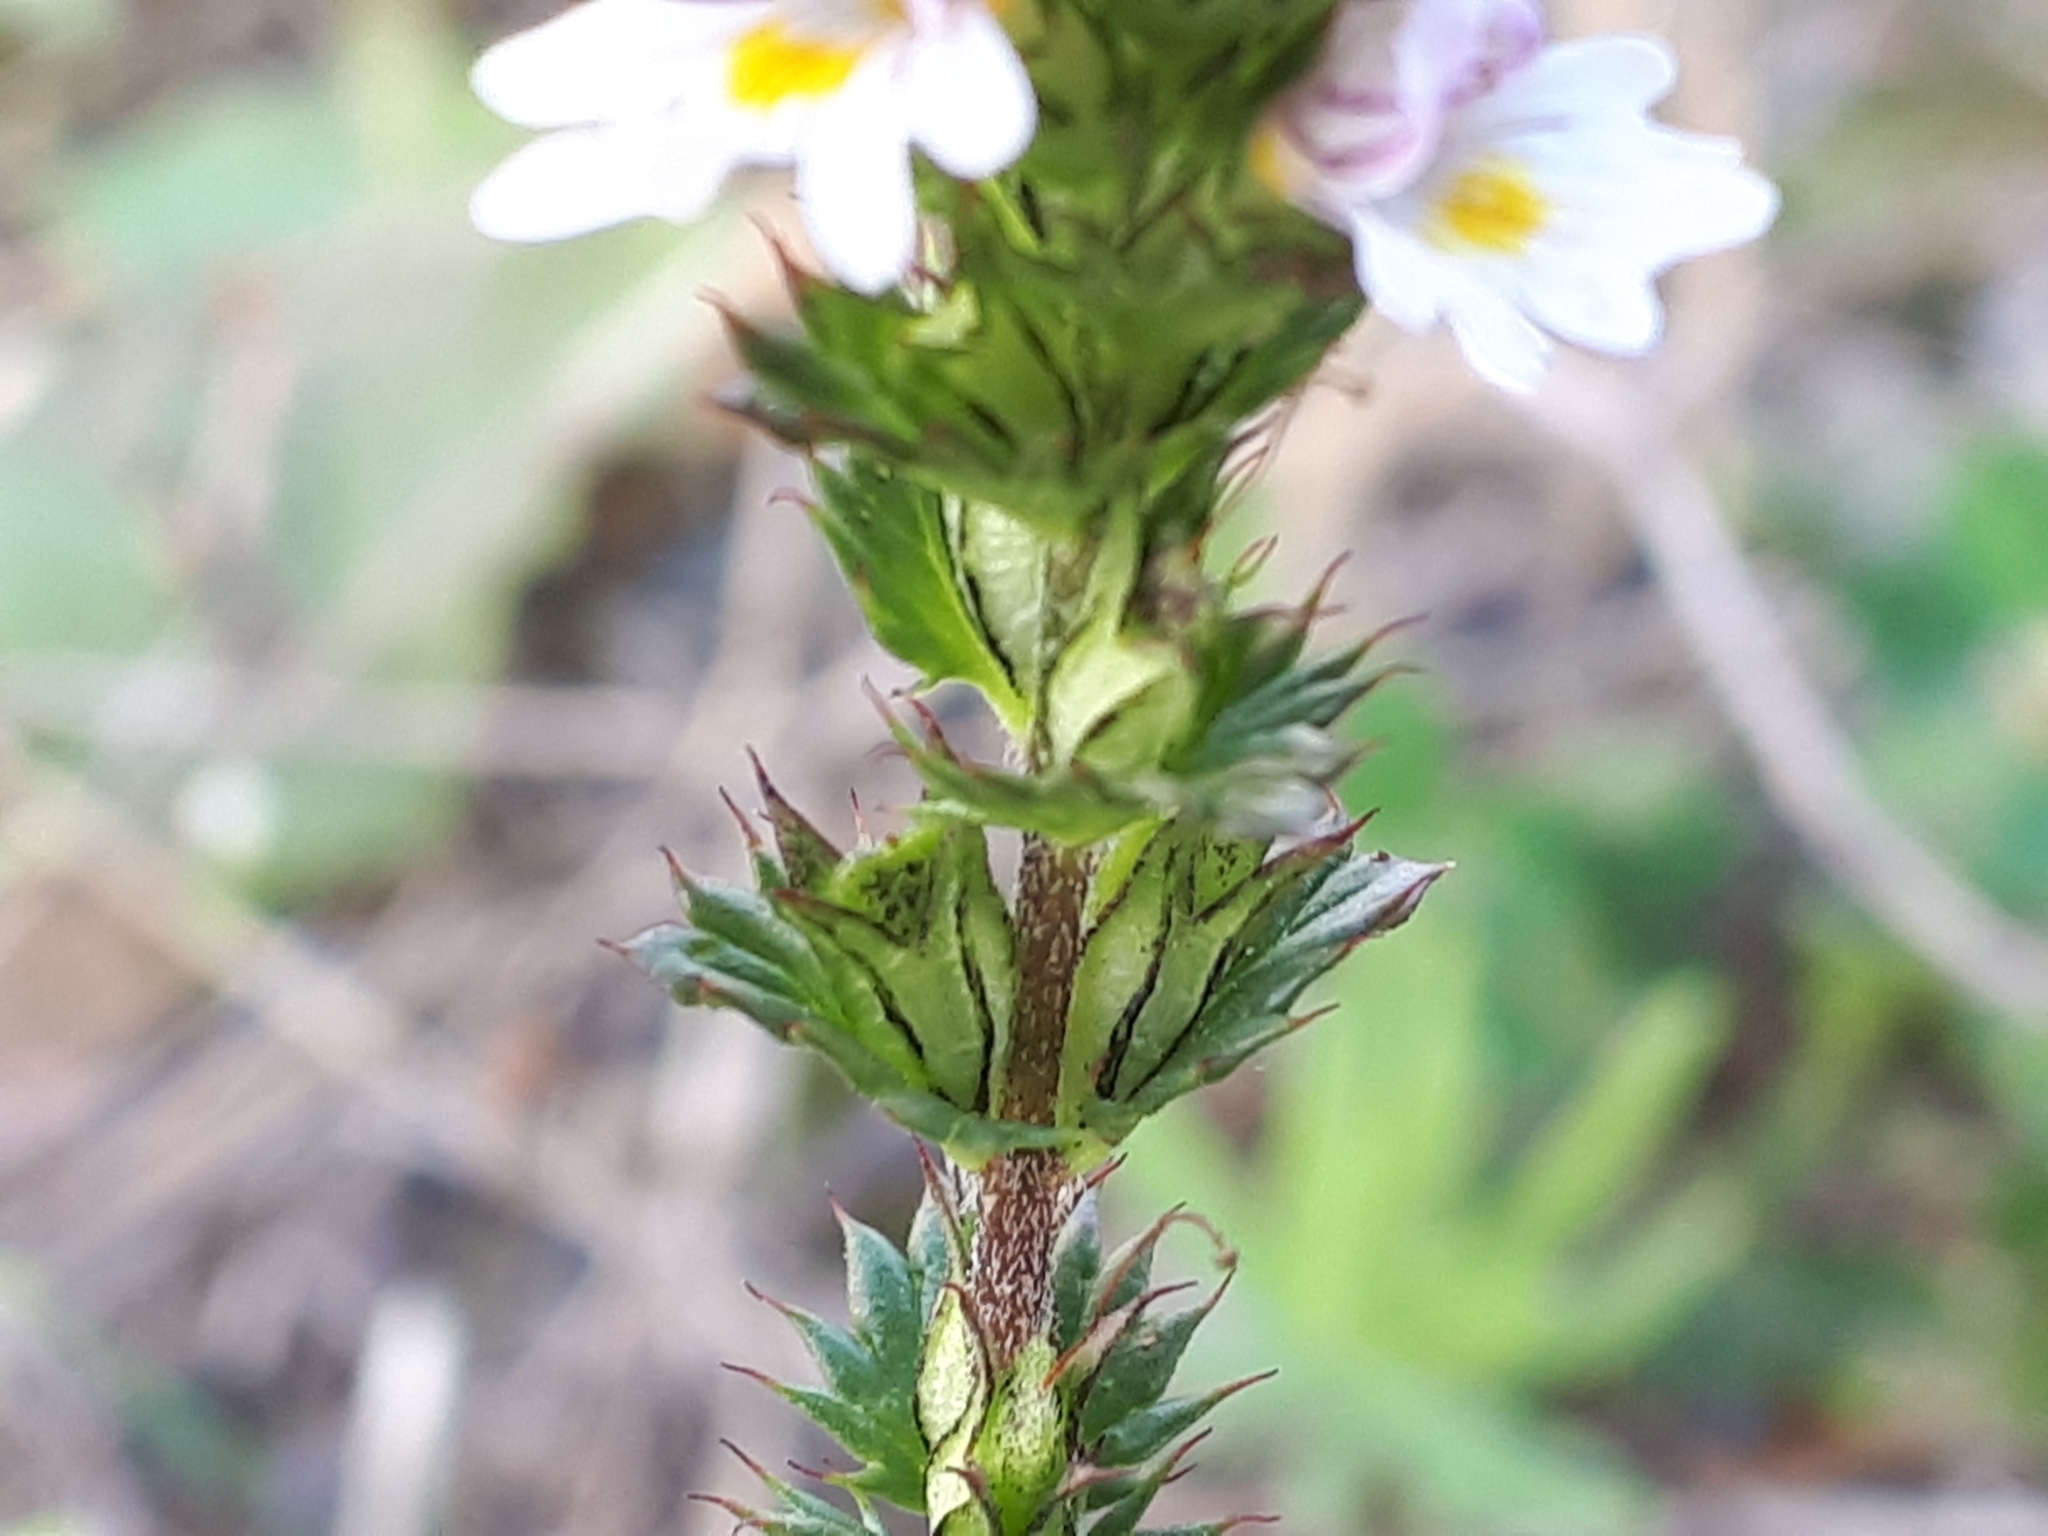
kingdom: Plantae
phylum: Tracheophyta
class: Magnoliopsida
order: Lamiales
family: Orobanchaceae
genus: Euphrasia
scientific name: Euphrasia stricta
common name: Drug eyebright
